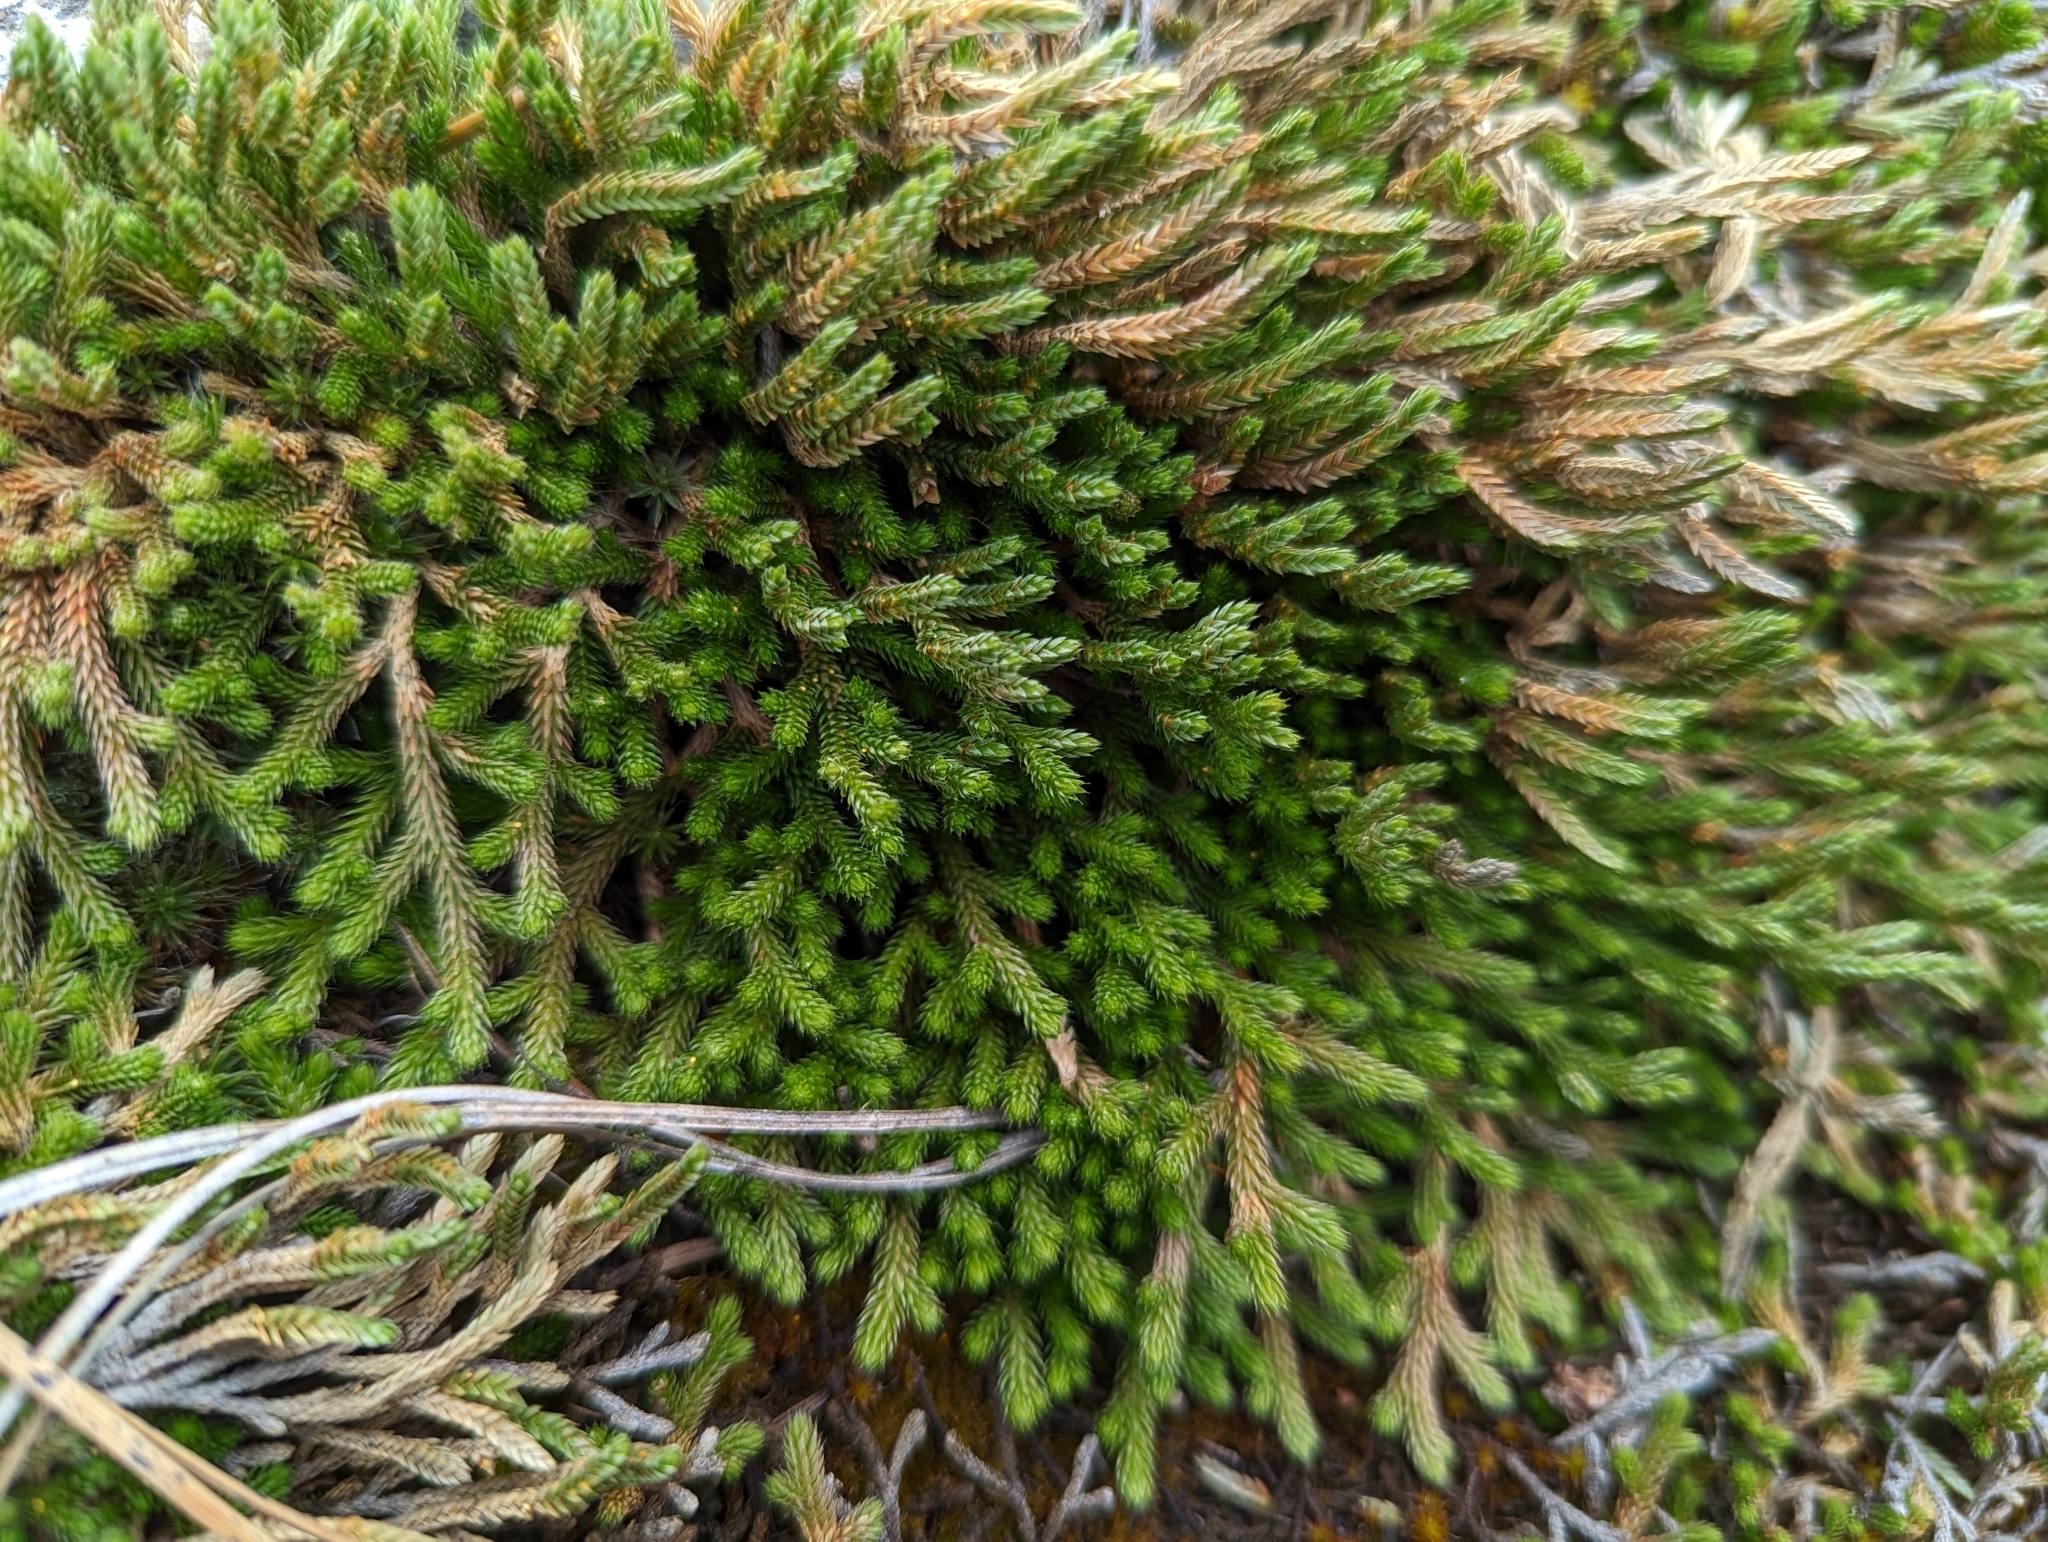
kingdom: Plantae
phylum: Tracheophyta
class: Lycopodiopsida
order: Selaginellales
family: Selaginellaceae
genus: Selaginella
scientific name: Selaginella wallacei
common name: Wallace's selaginella
